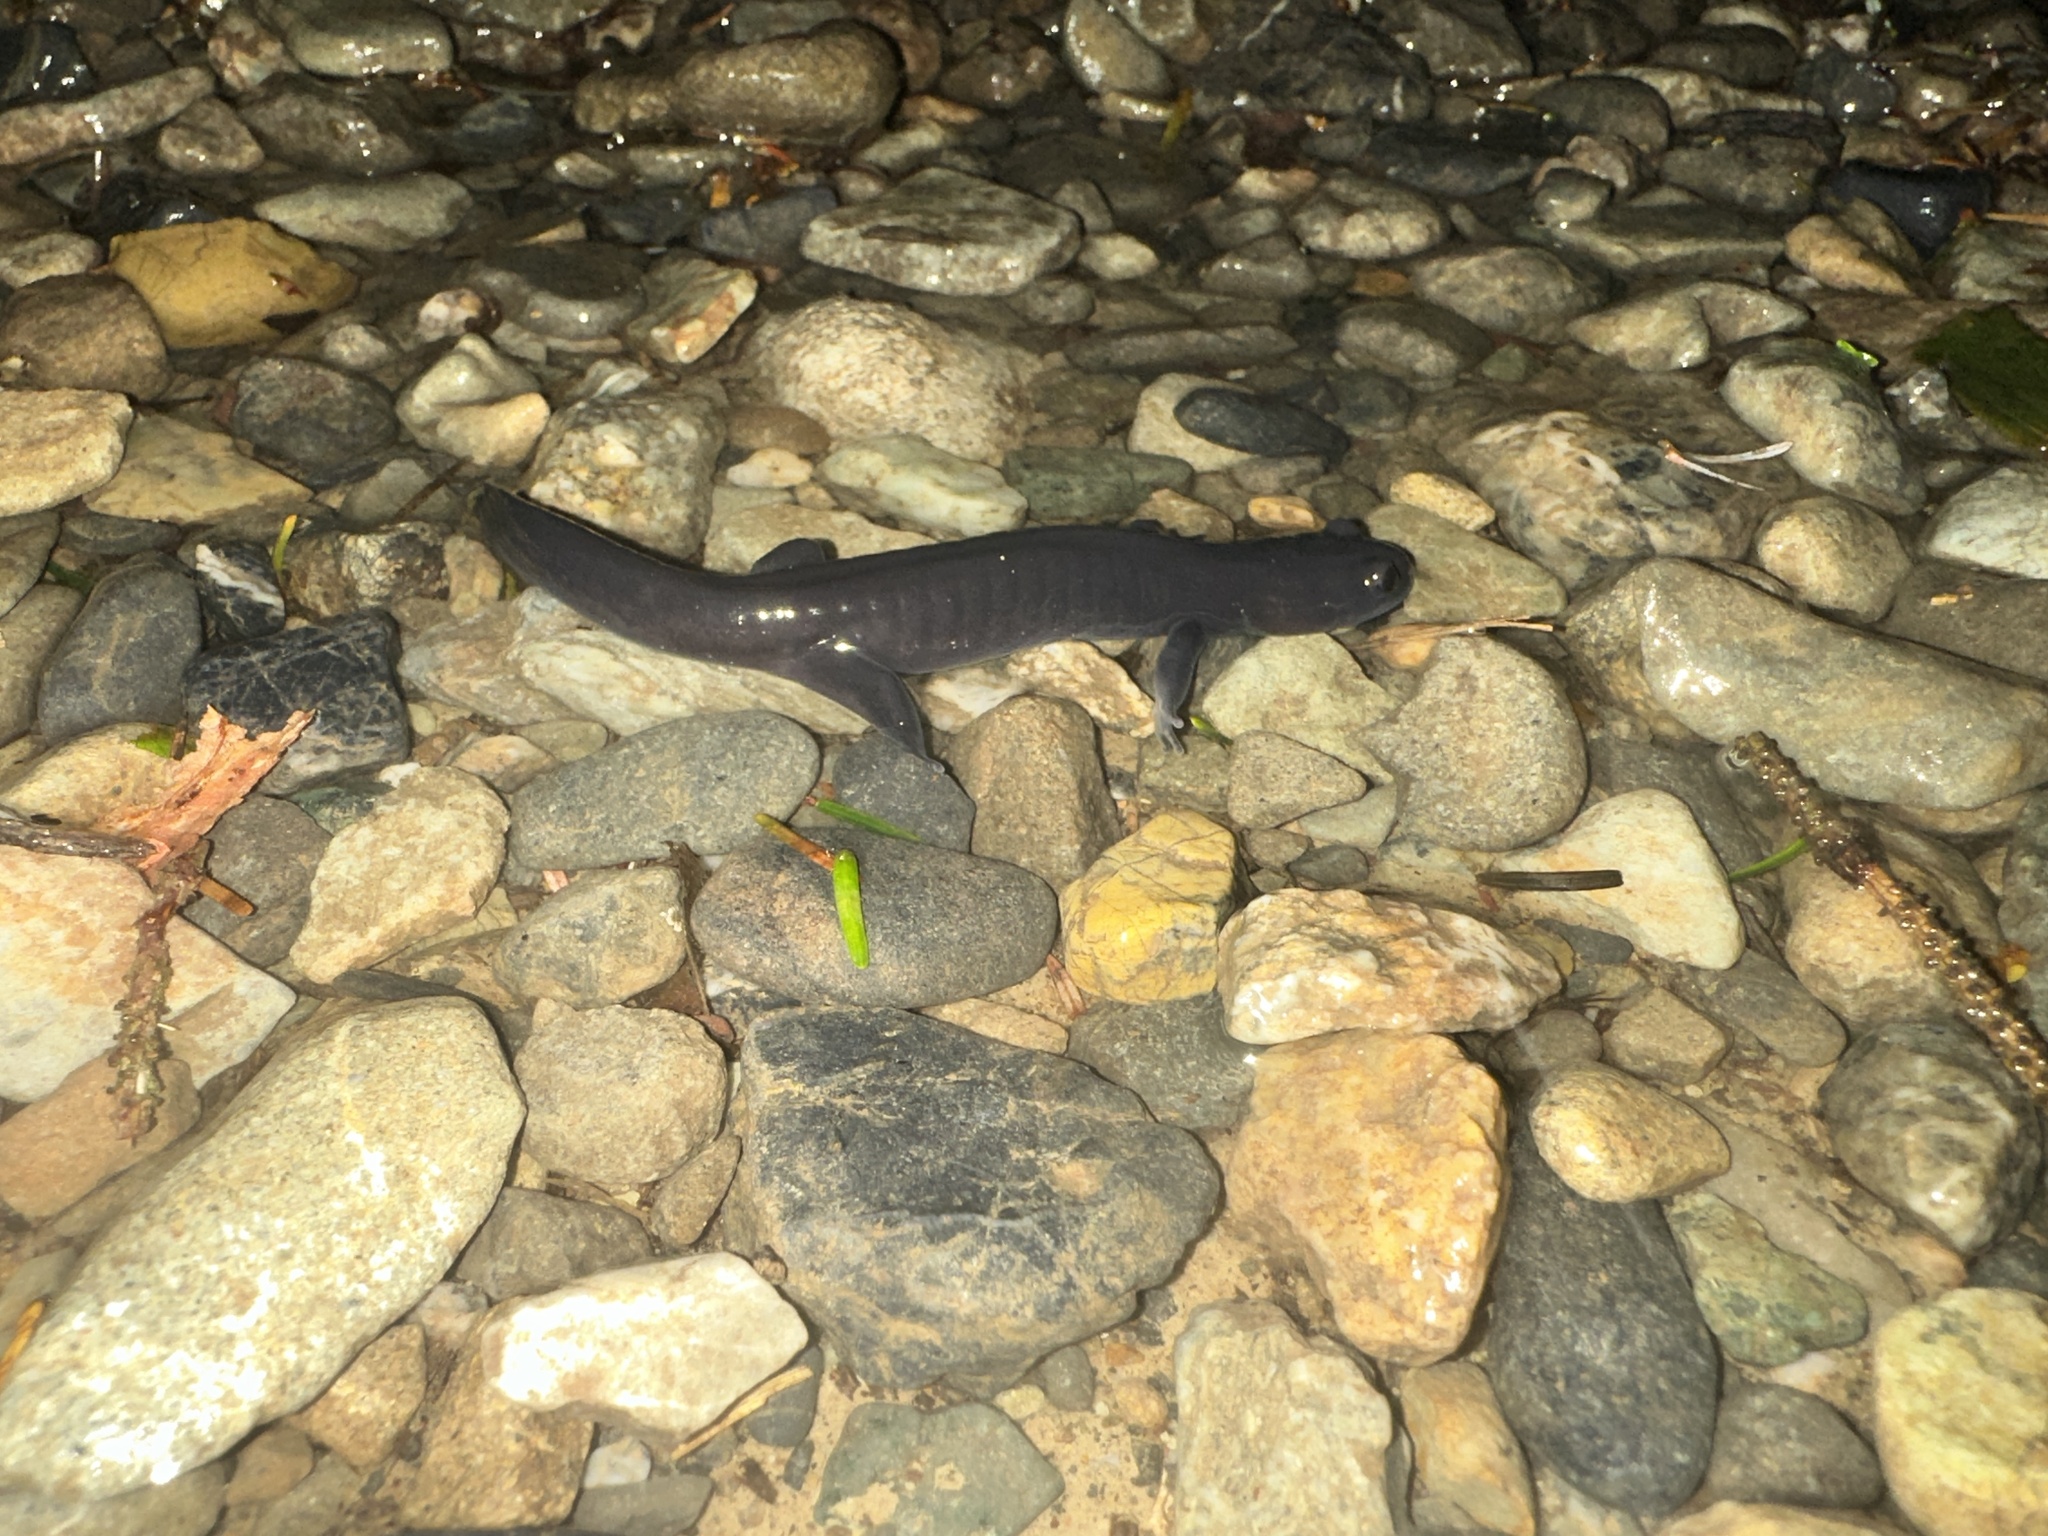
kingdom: Animalia
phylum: Chordata
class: Amphibia
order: Caudata
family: Hynobiidae
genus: Hynobius
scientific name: Hynobius boulengeri
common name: Boulengers oriental salamander
